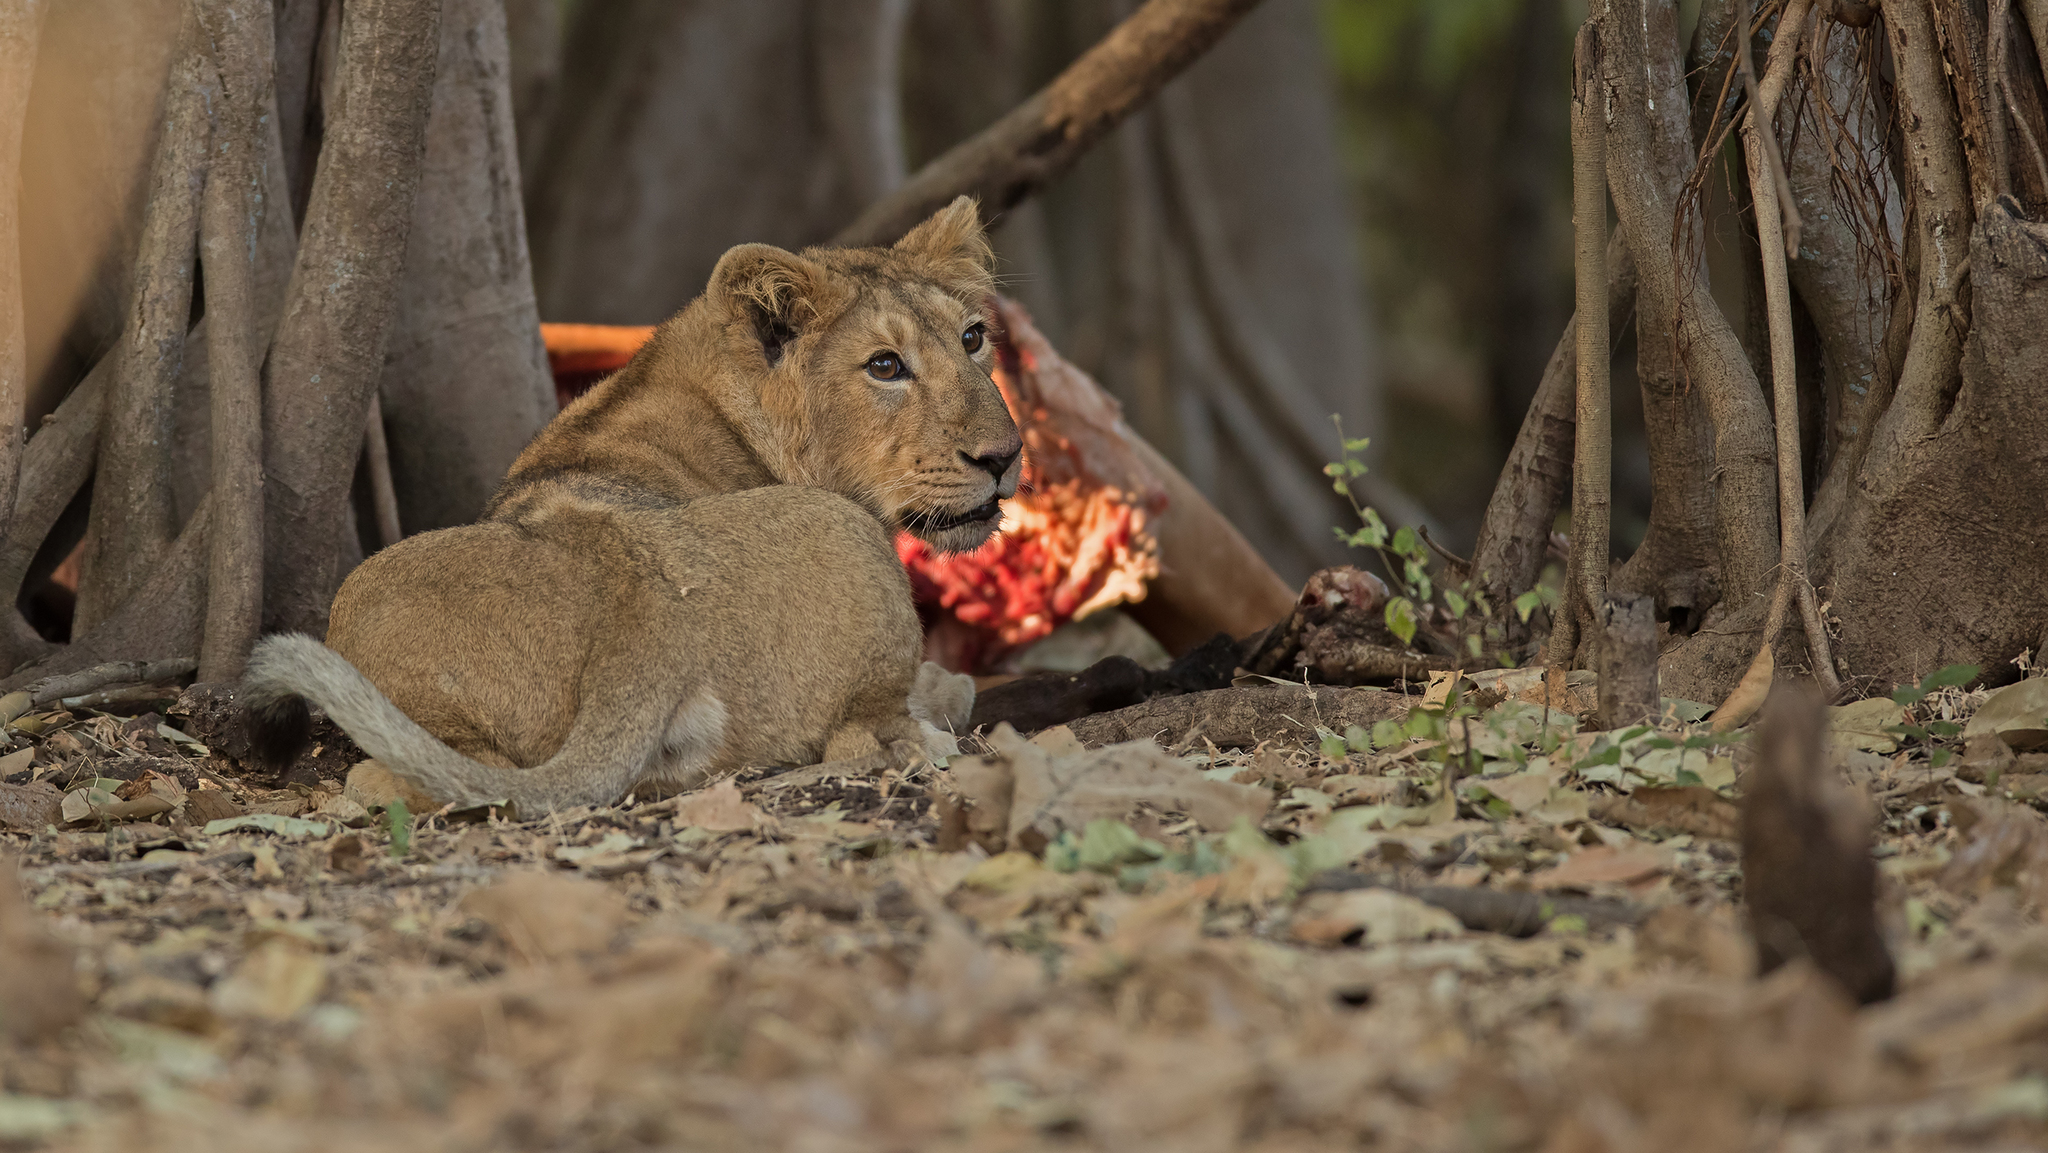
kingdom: Animalia
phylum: Chordata
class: Mammalia
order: Carnivora
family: Felidae
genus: Panthera
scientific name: Panthera leo
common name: Lion
